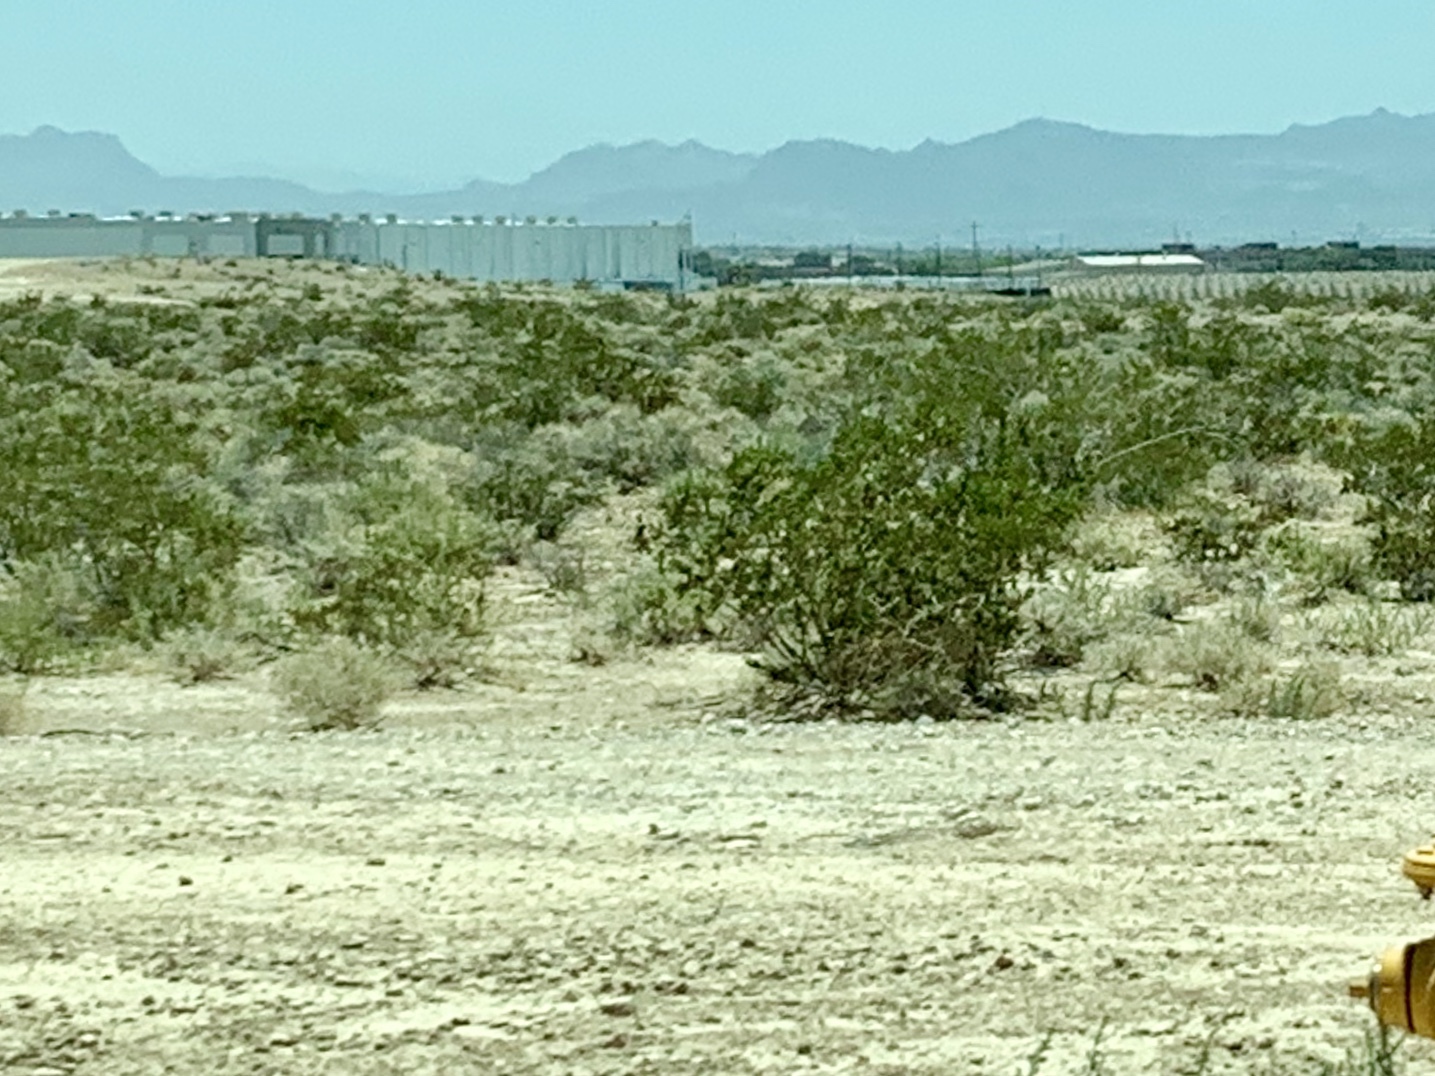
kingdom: Plantae
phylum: Tracheophyta
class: Magnoliopsida
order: Zygophyllales
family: Zygophyllaceae
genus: Larrea
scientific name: Larrea tridentata
